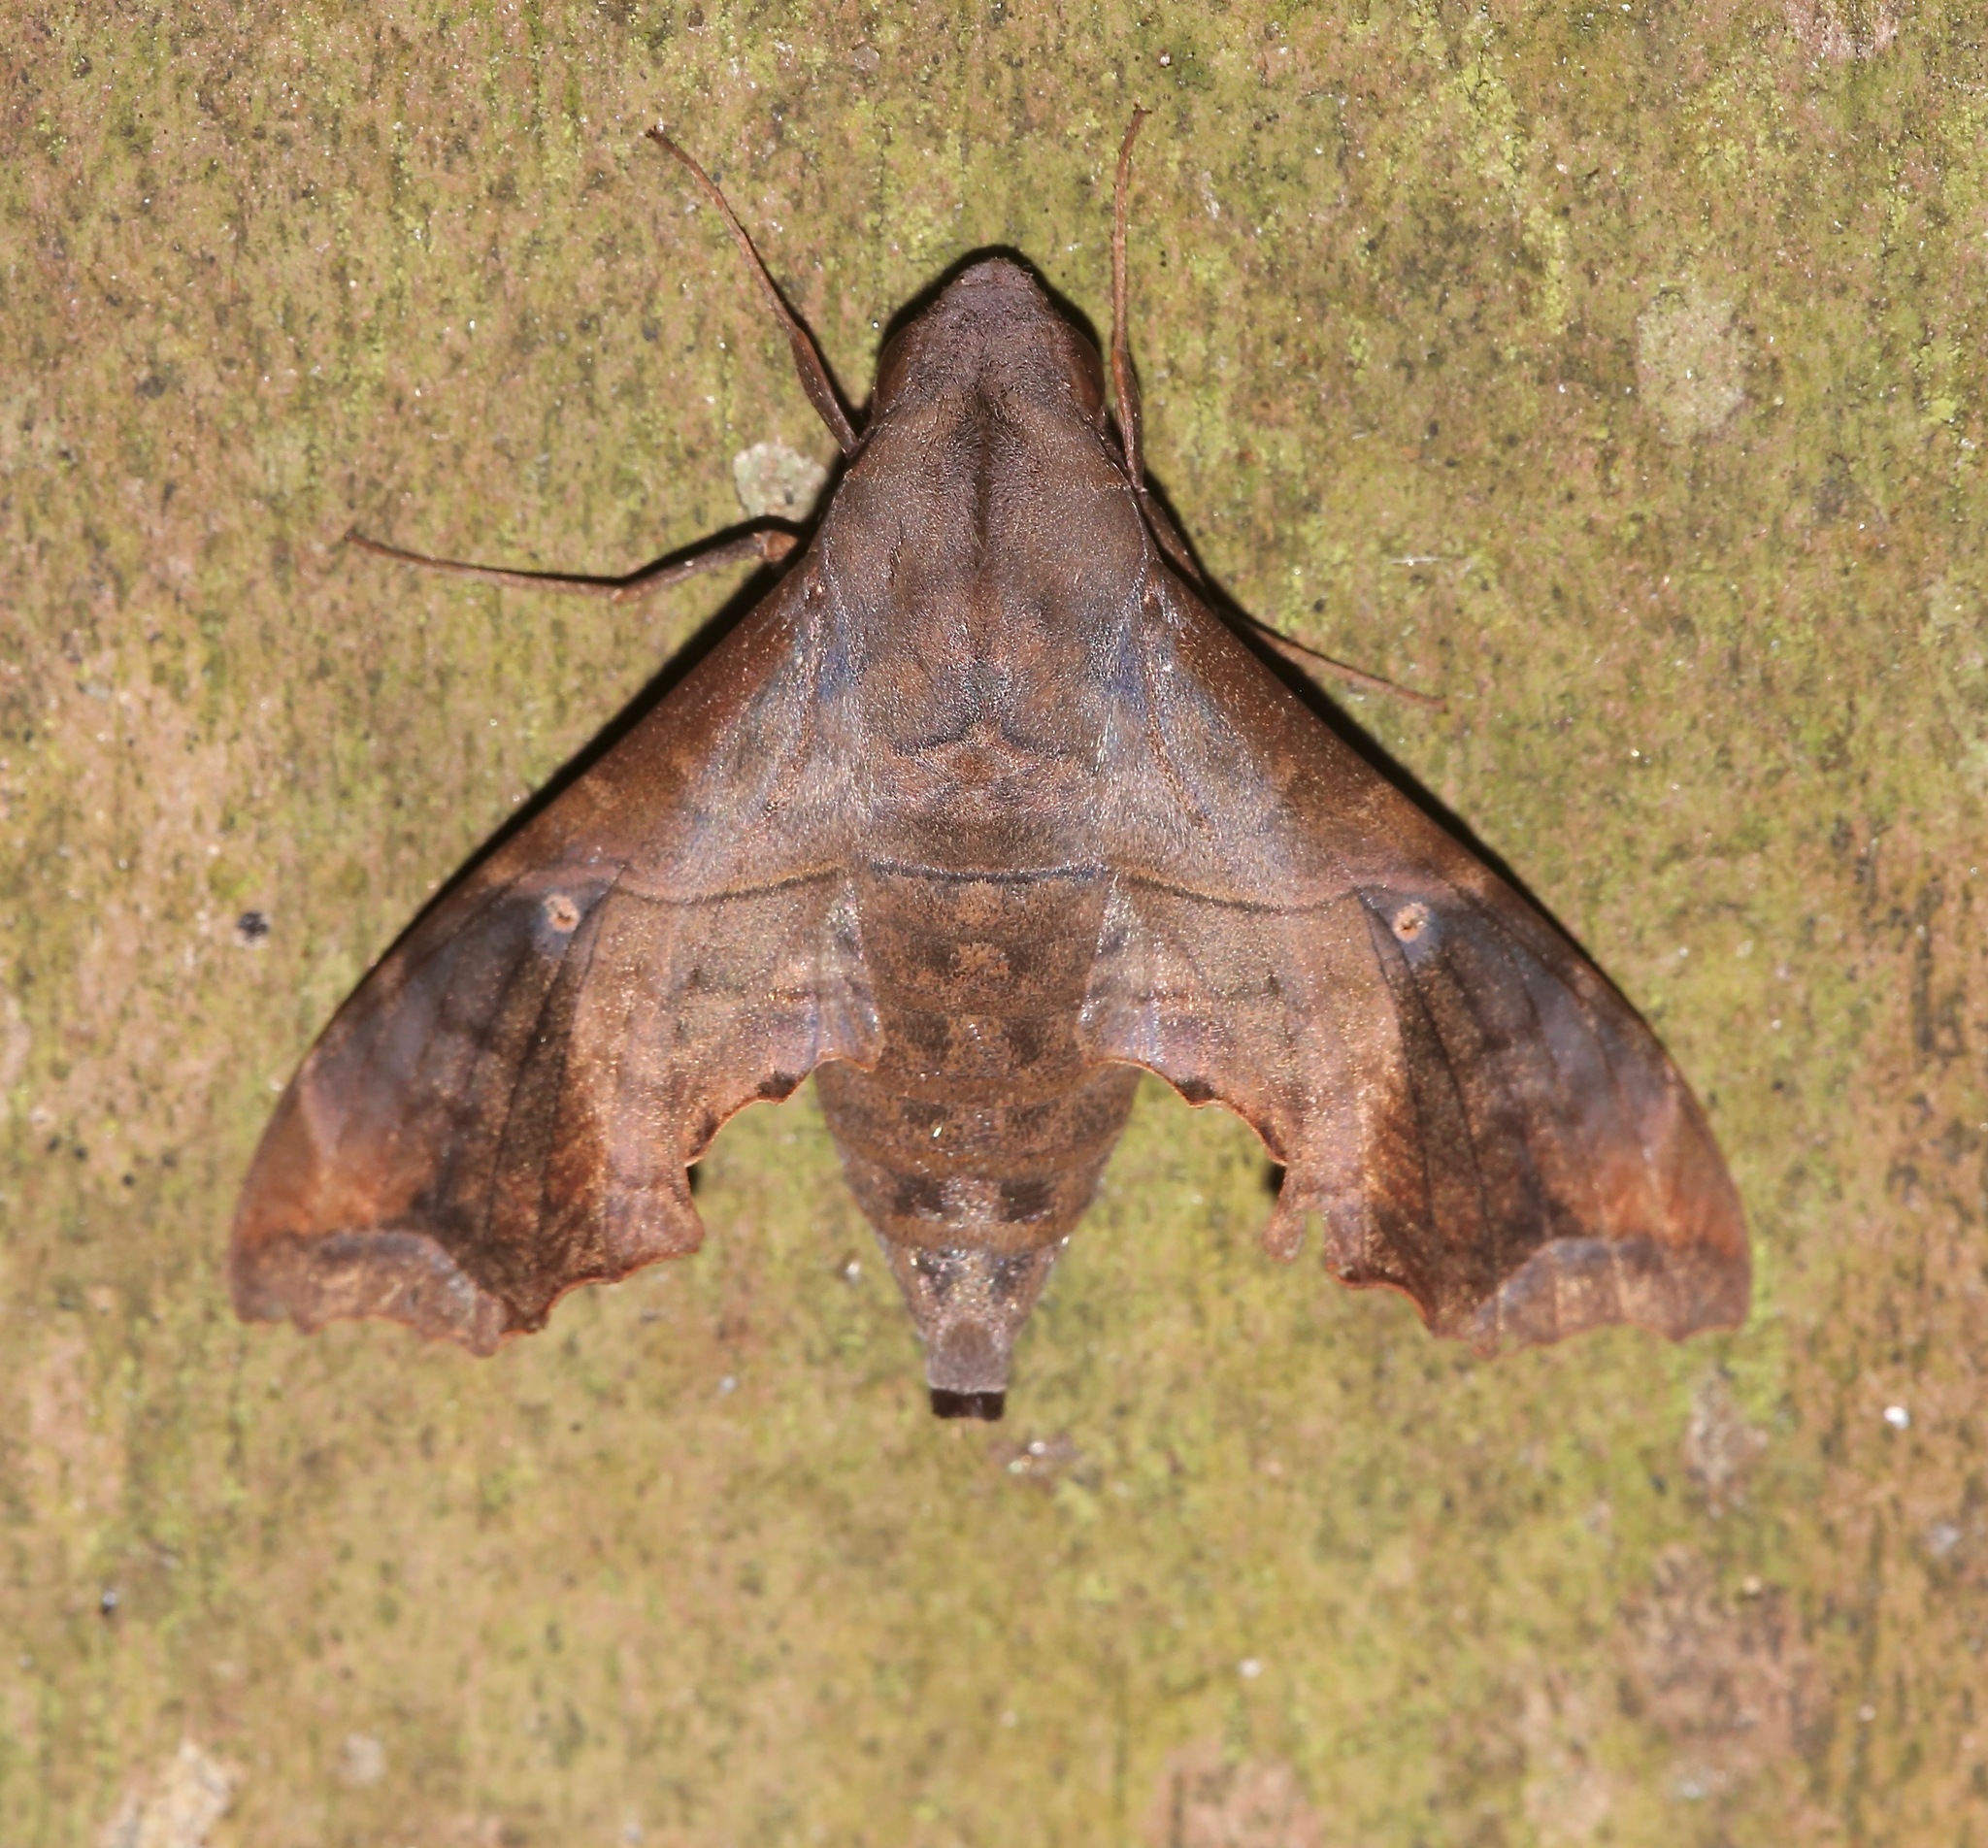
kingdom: Animalia
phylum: Arthropoda
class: Insecta
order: Lepidoptera
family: Sphingidae
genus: Enyo
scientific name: Enyo lugubris
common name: Mournful sphinx
